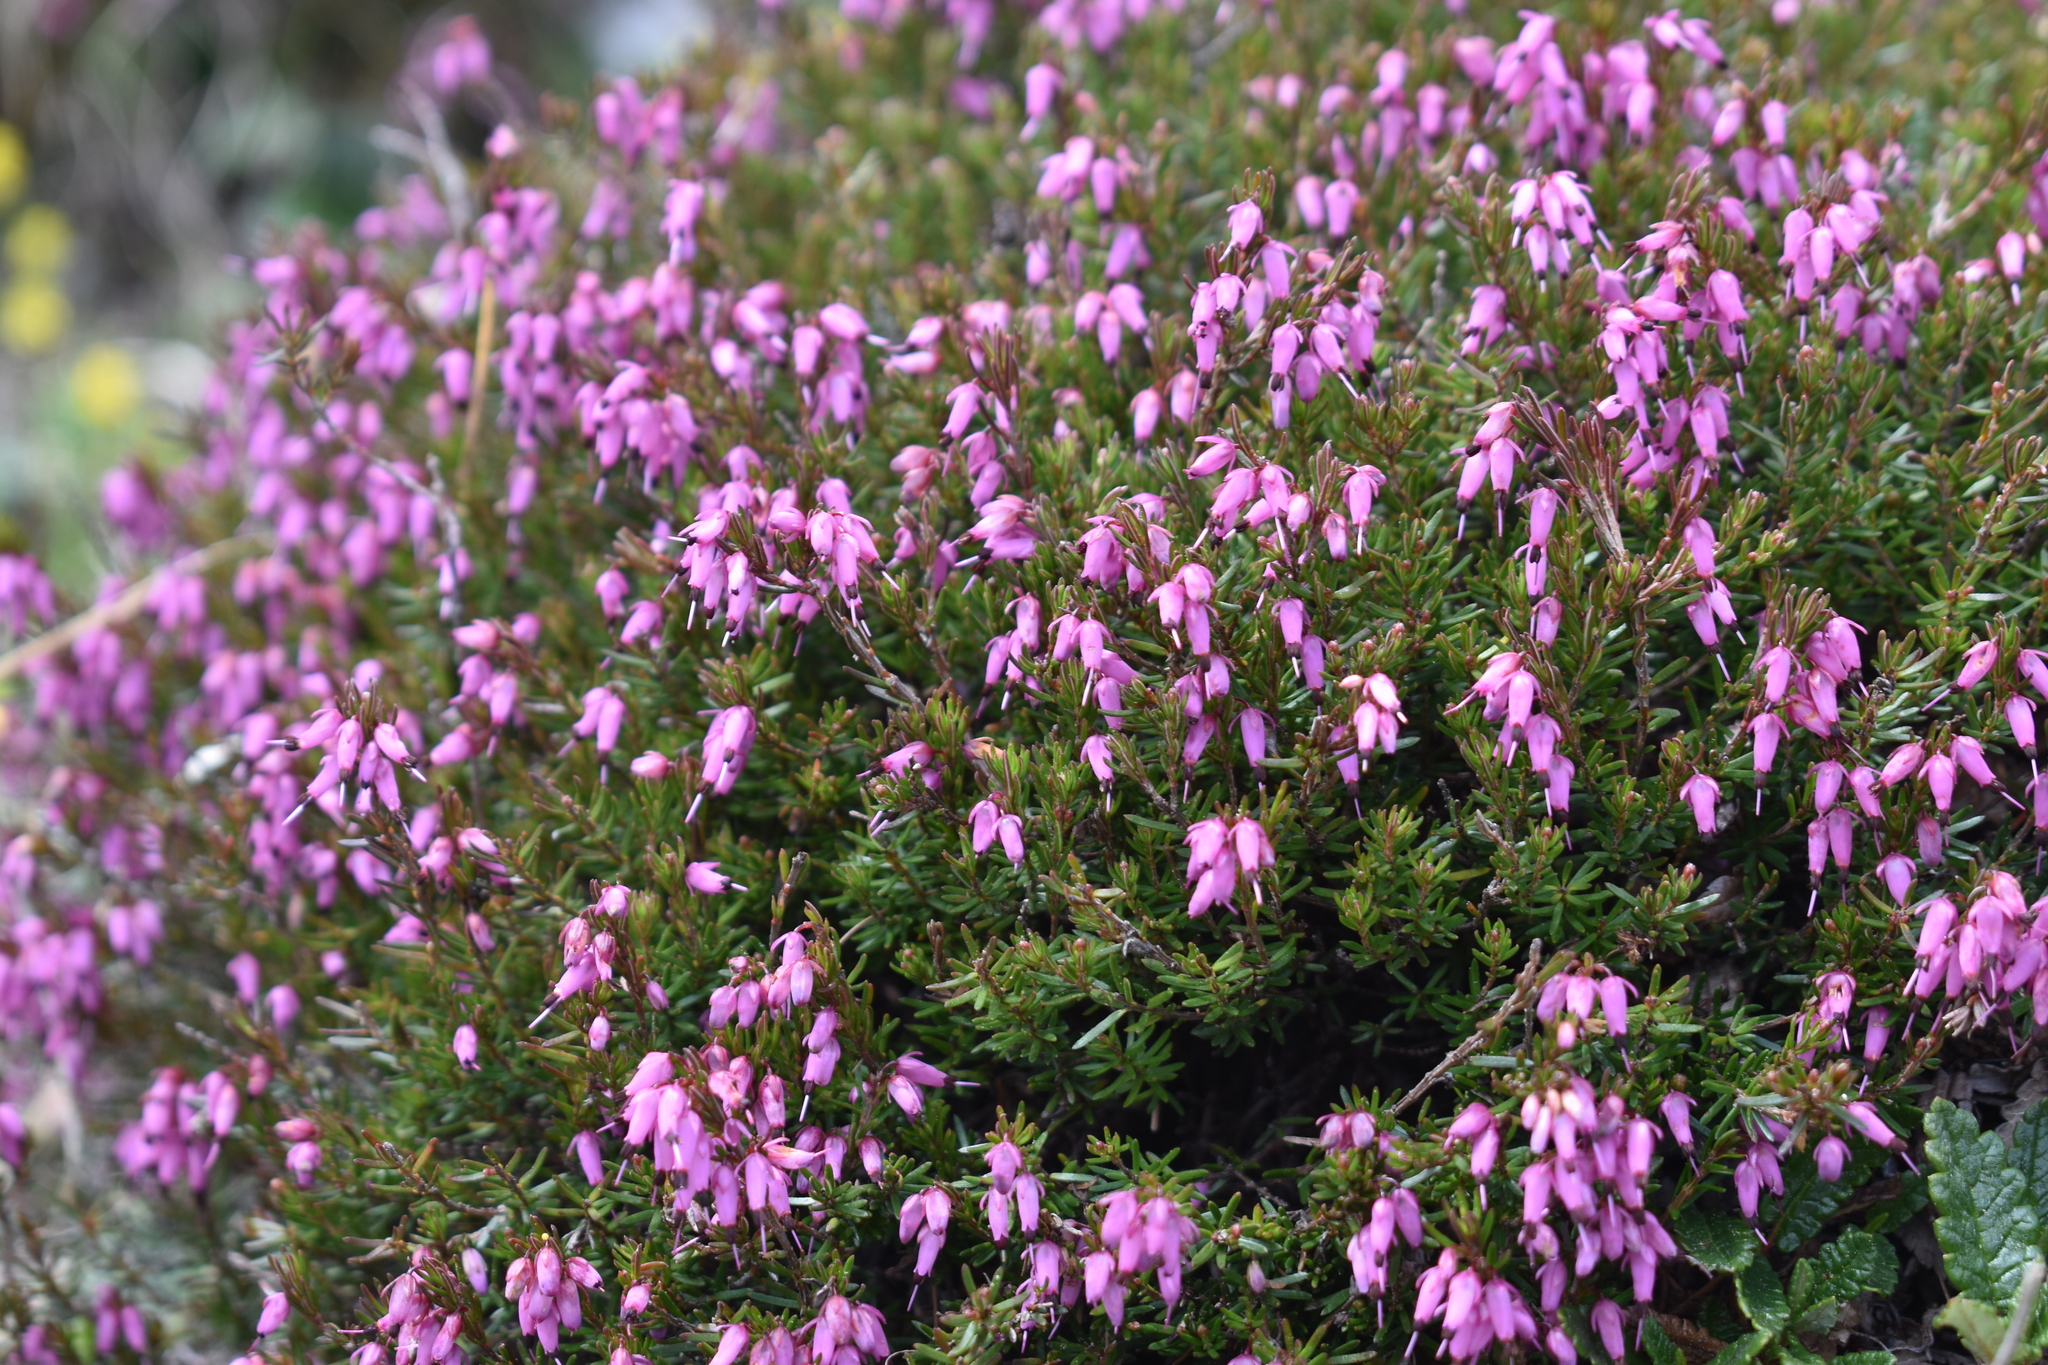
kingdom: Plantae
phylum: Tracheophyta
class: Magnoliopsida
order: Ericales
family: Ericaceae
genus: Erica
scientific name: Erica carnea
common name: Winter heath
